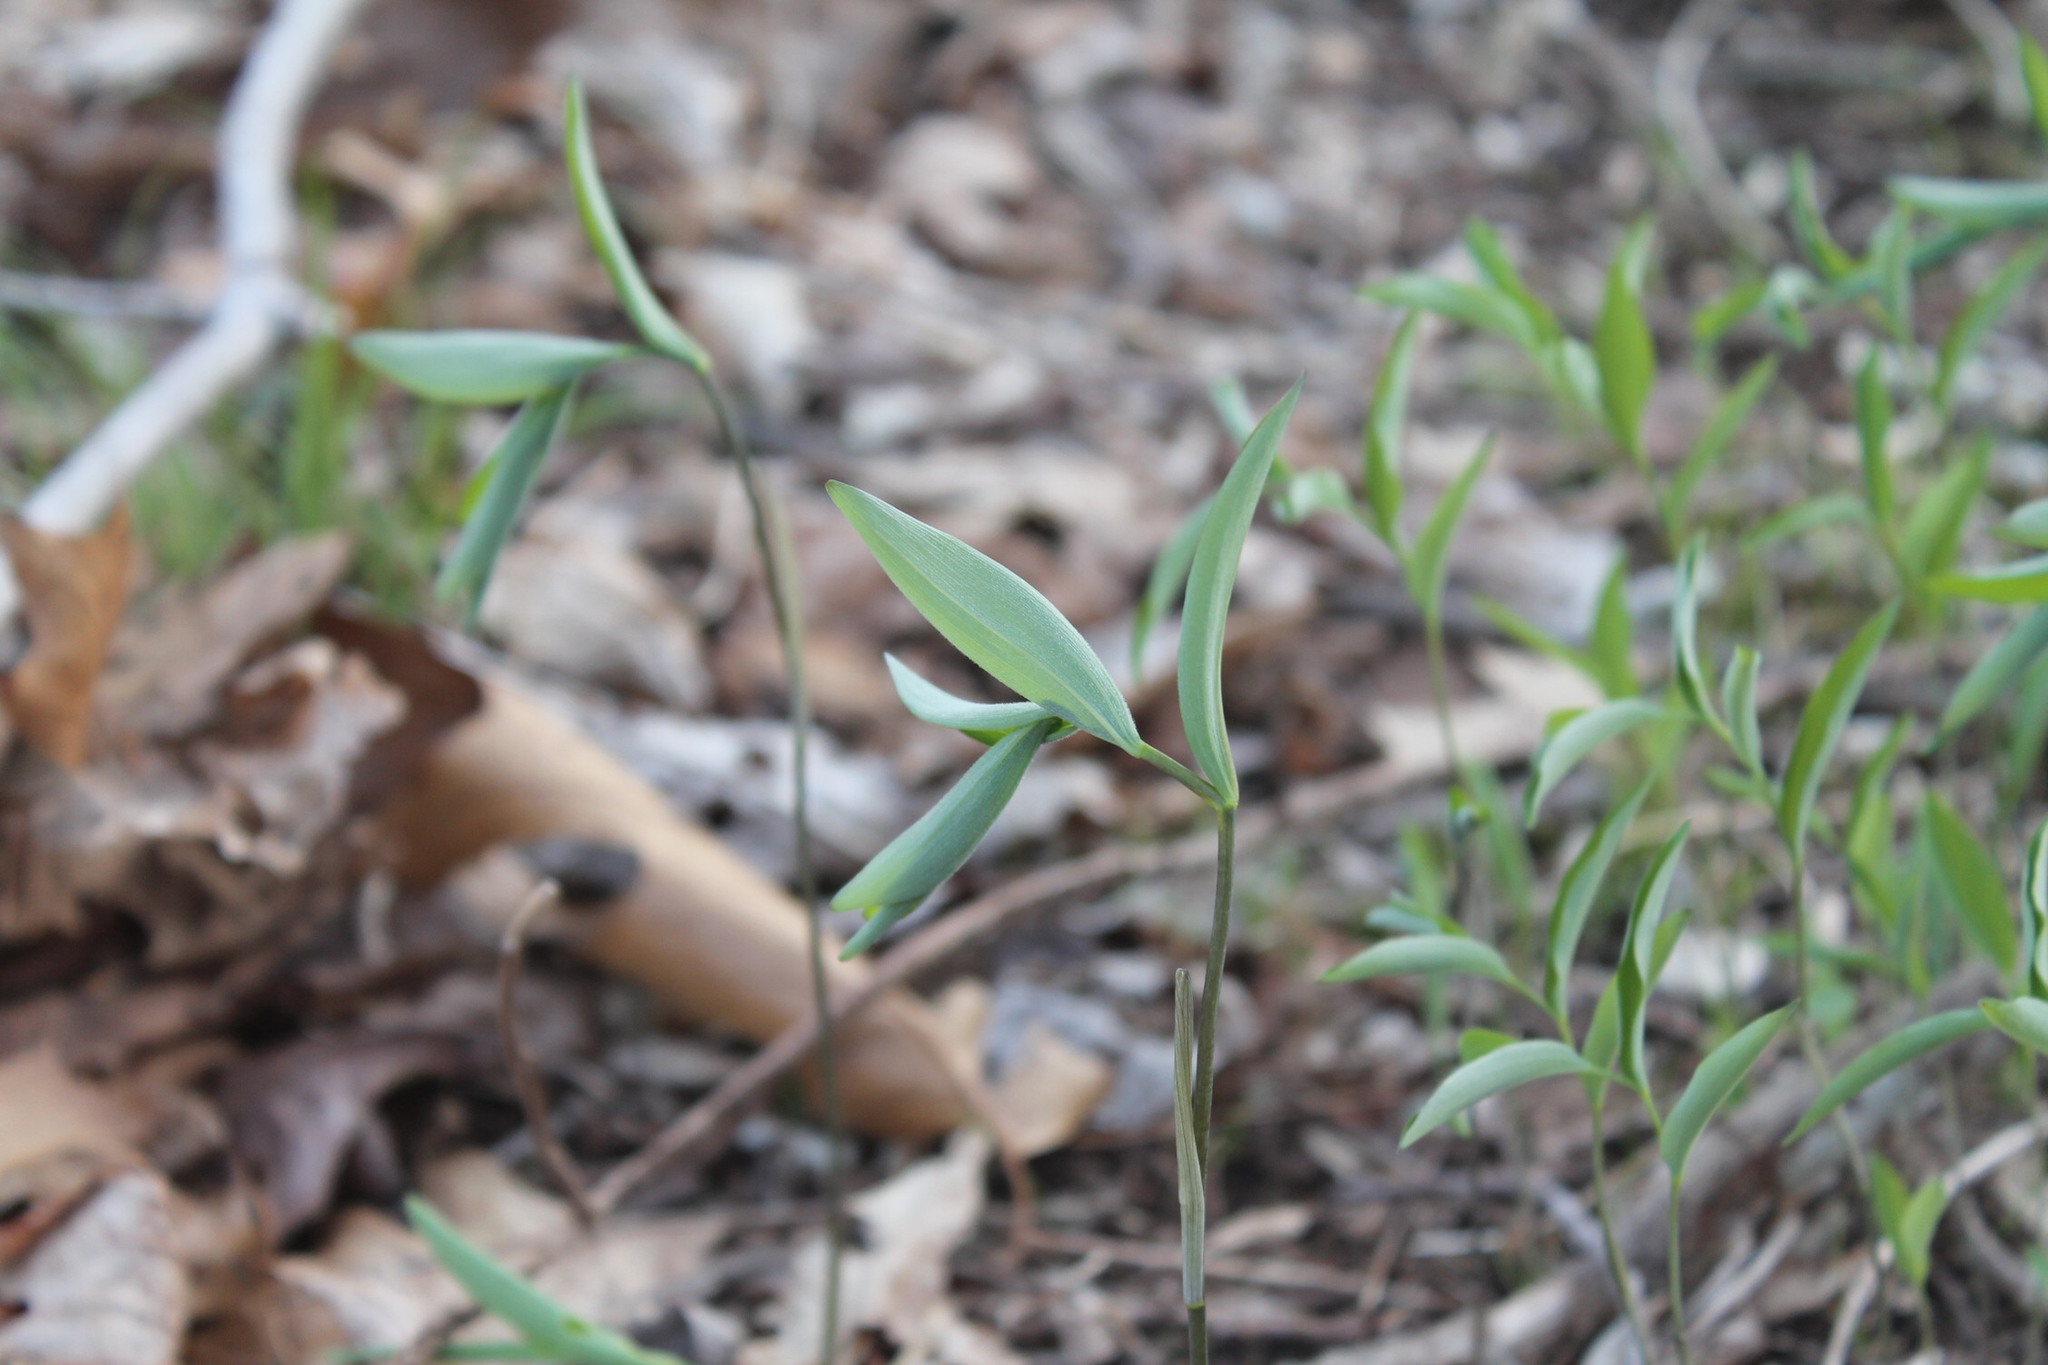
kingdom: Plantae
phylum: Tracheophyta
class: Liliopsida
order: Asparagales
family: Asparagaceae
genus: Polygonatum
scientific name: Polygonatum pubescens
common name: Downy solomon's seal
